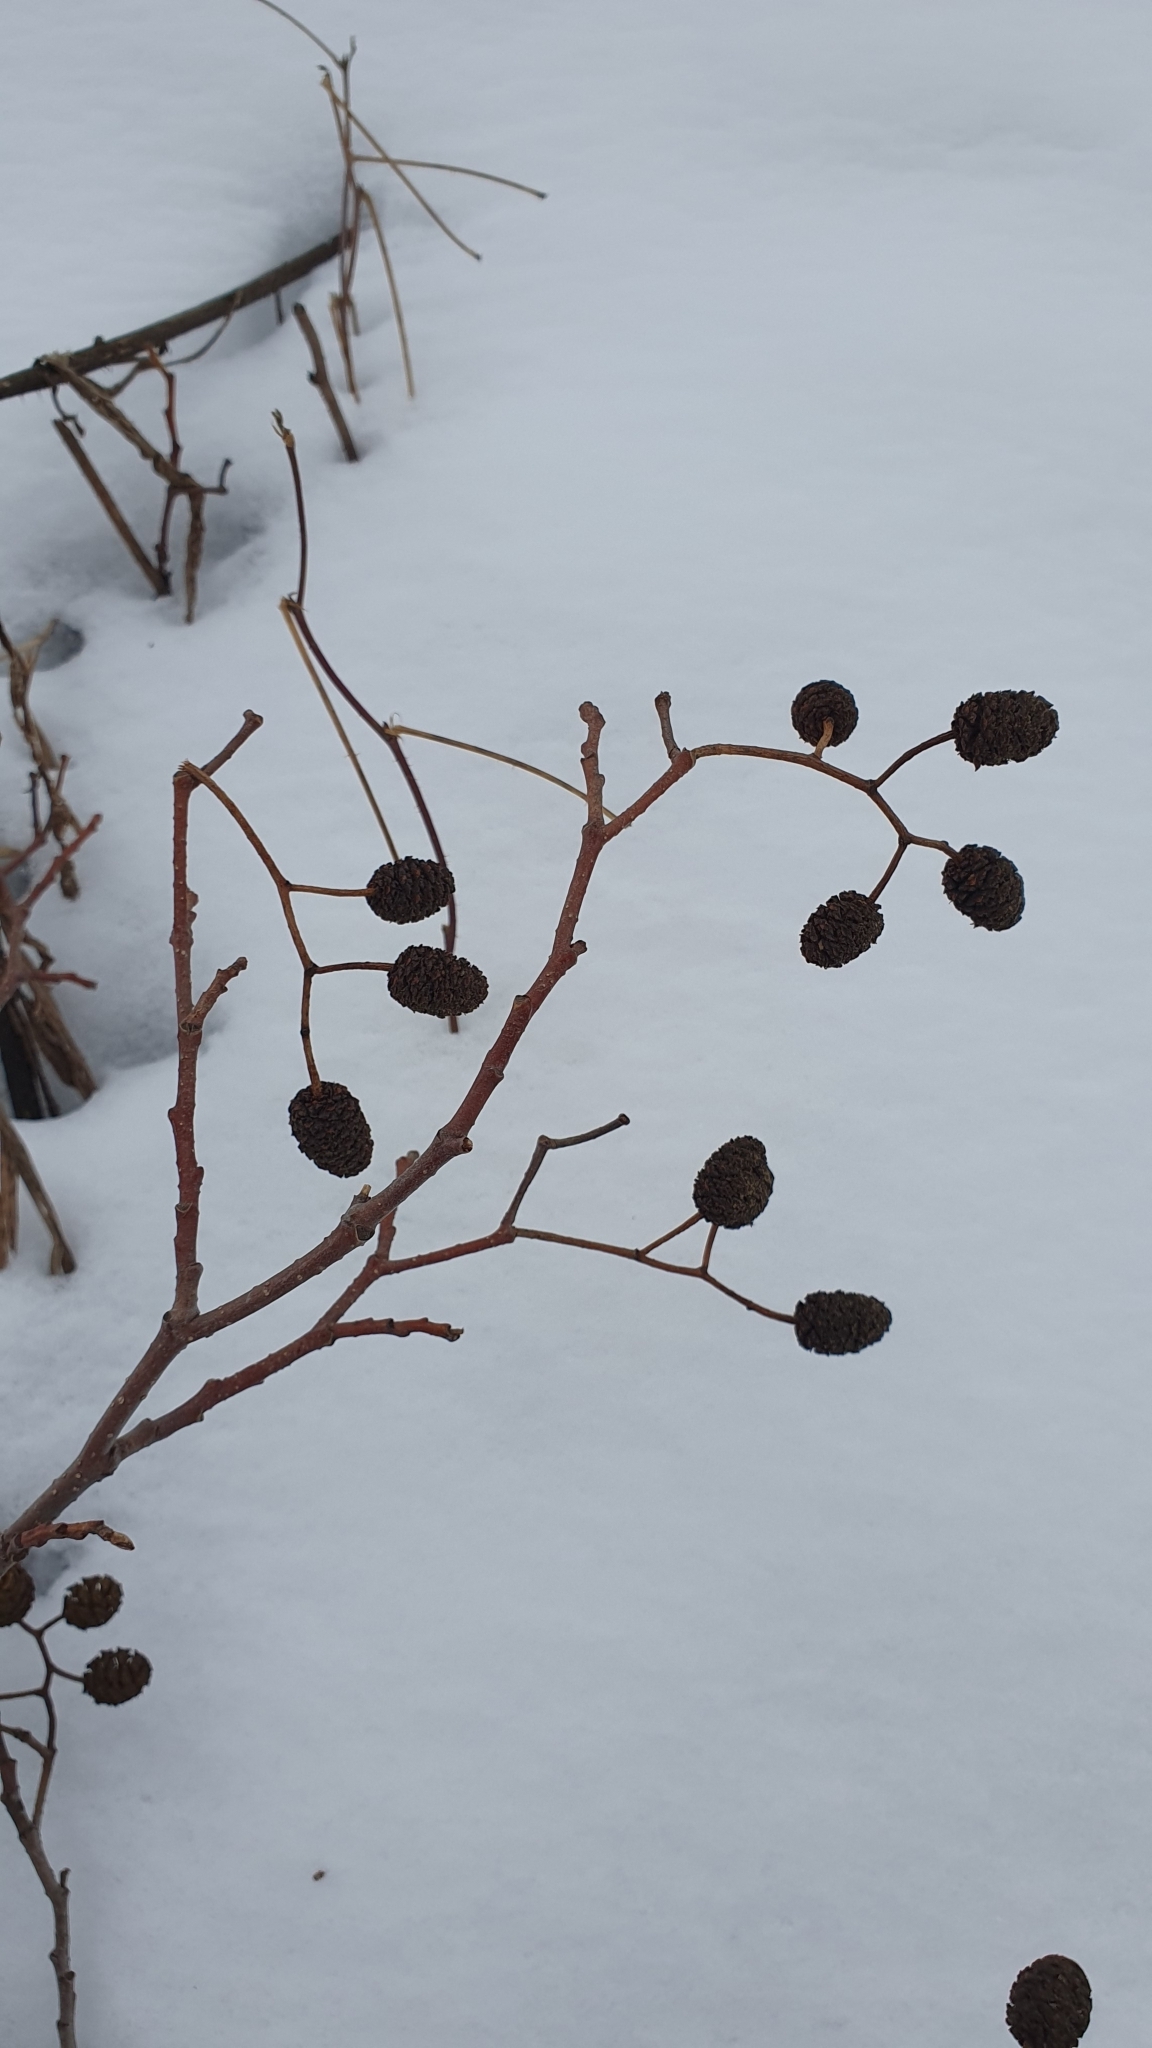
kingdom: Plantae
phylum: Tracheophyta
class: Magnoliopsida
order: Fagales
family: Betulaceae
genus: Alnus
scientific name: Alnus glutinosa
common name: Black alder
